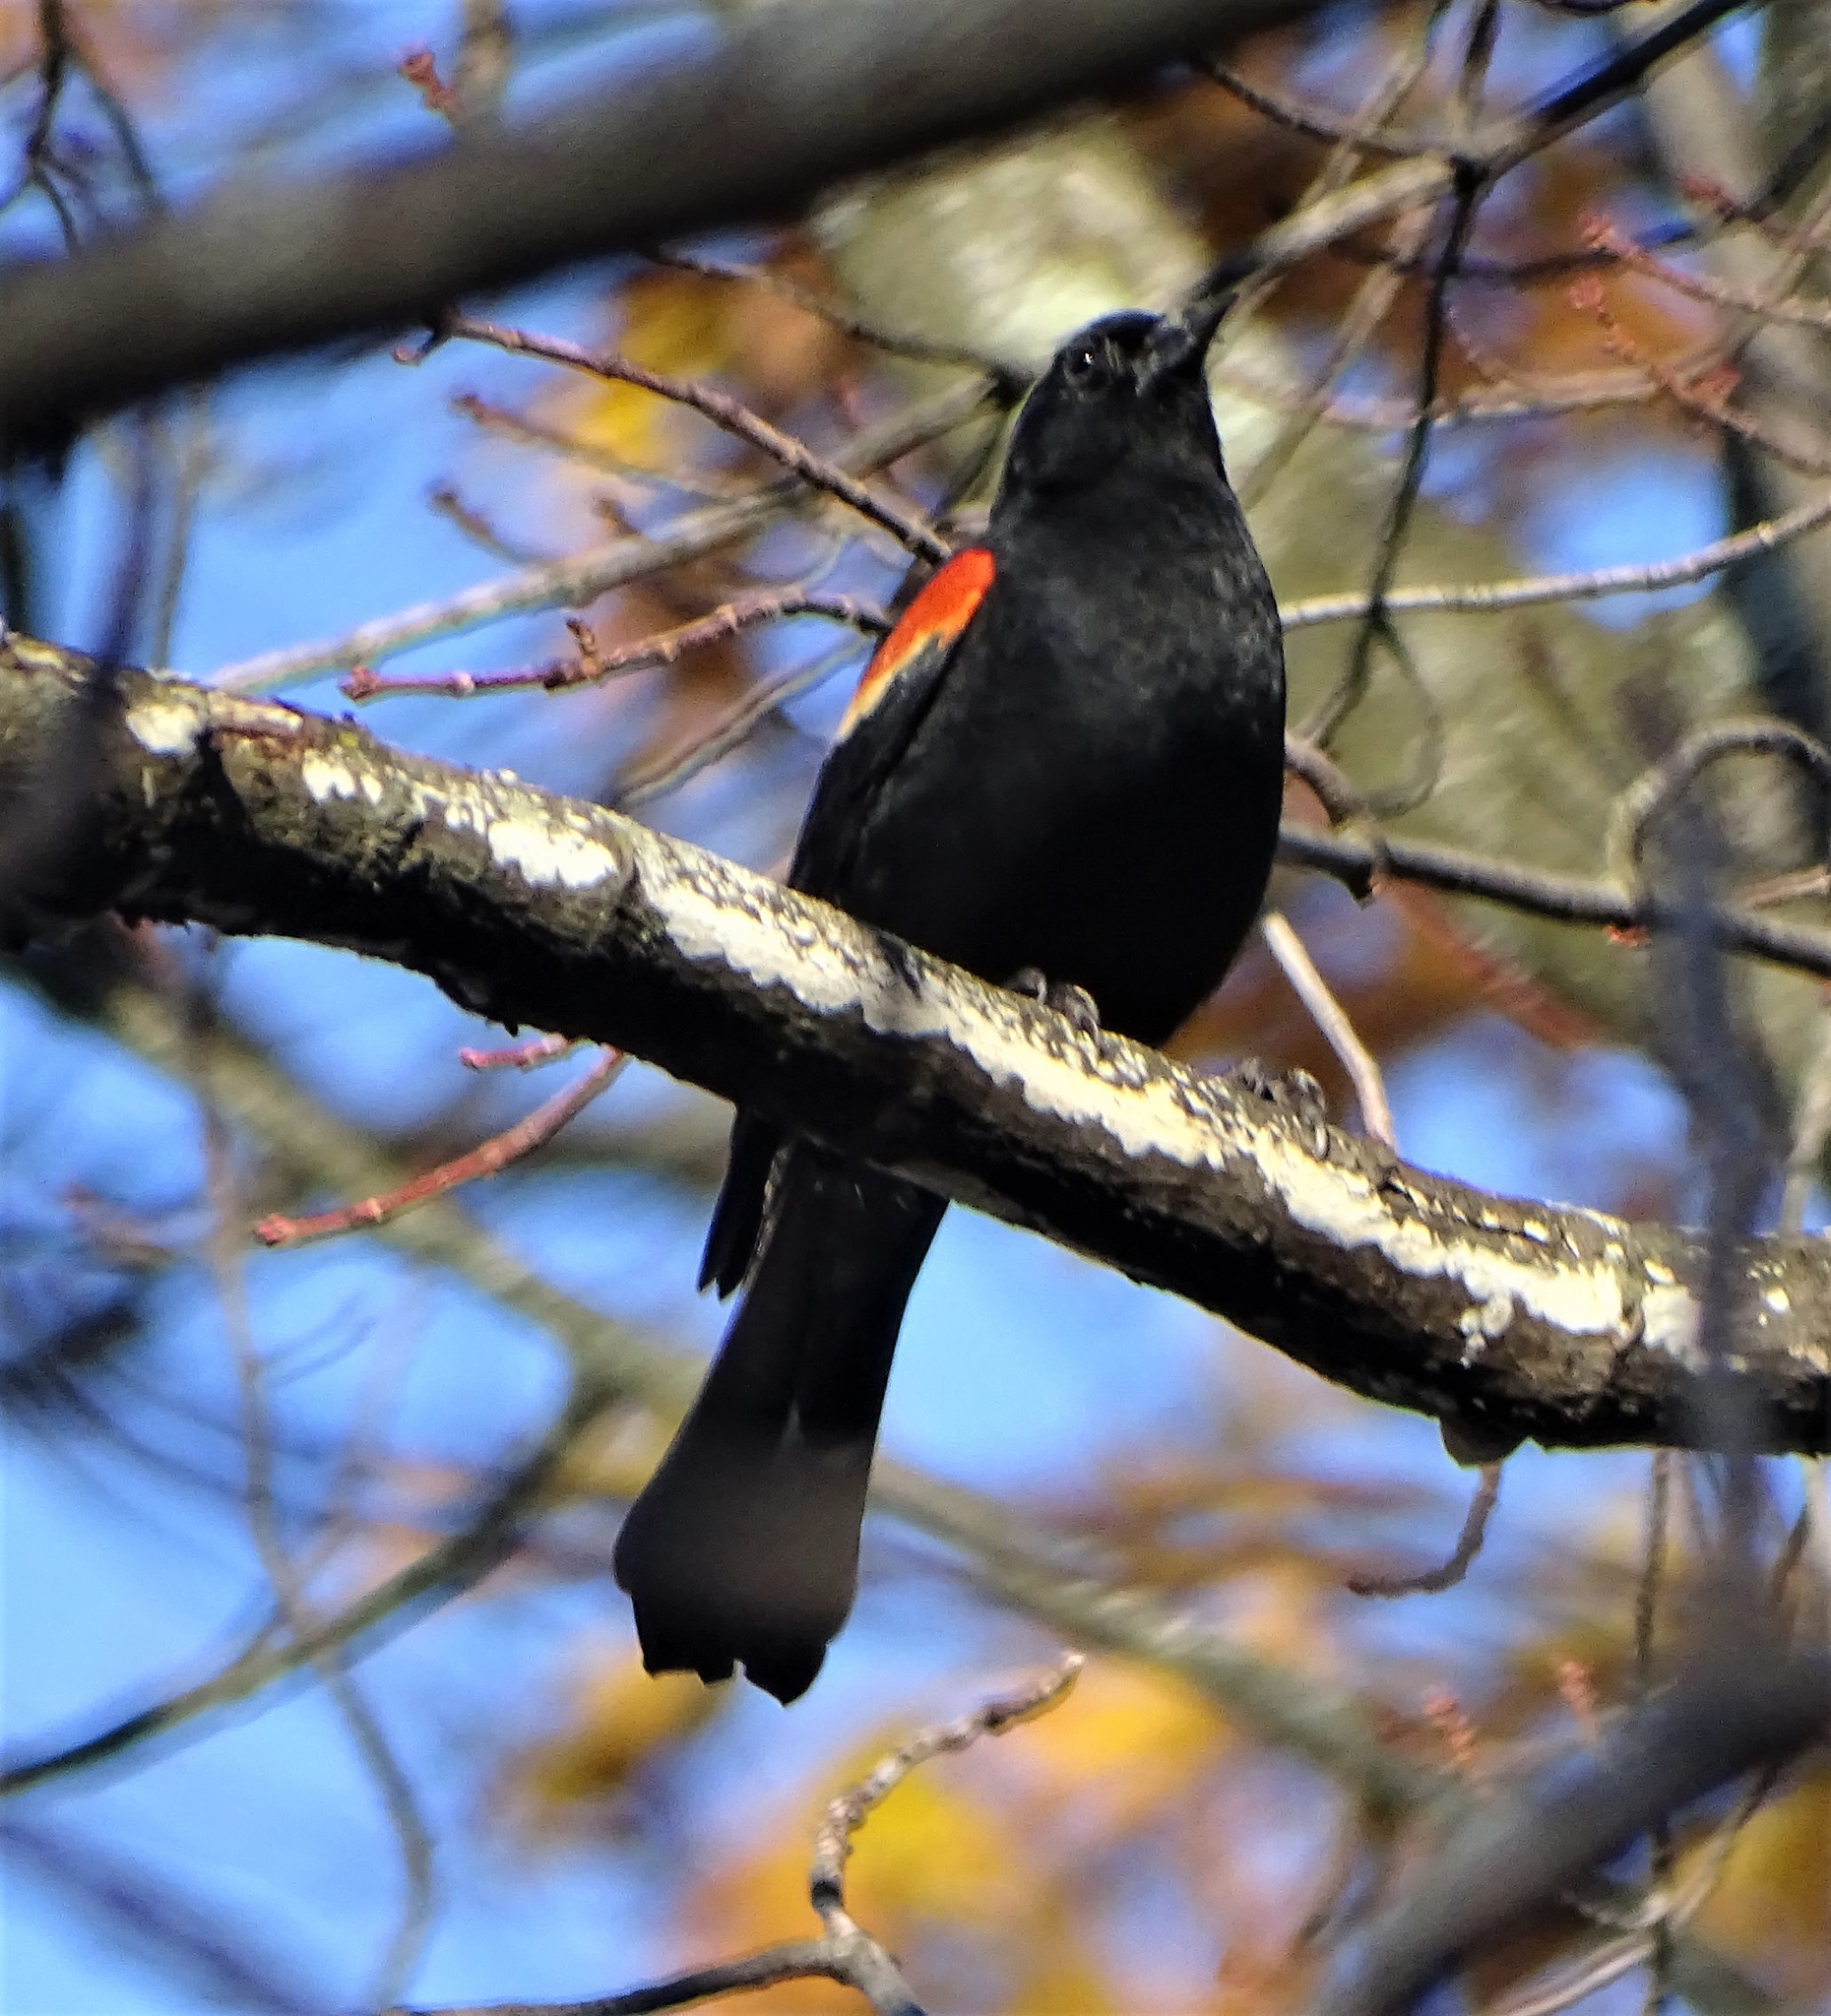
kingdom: Animalia
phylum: Chordata
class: Aves
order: Passeriformes
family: Icteridae
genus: Agelaius
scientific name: Agelaius phoeniceus
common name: Red-winged blackbird
